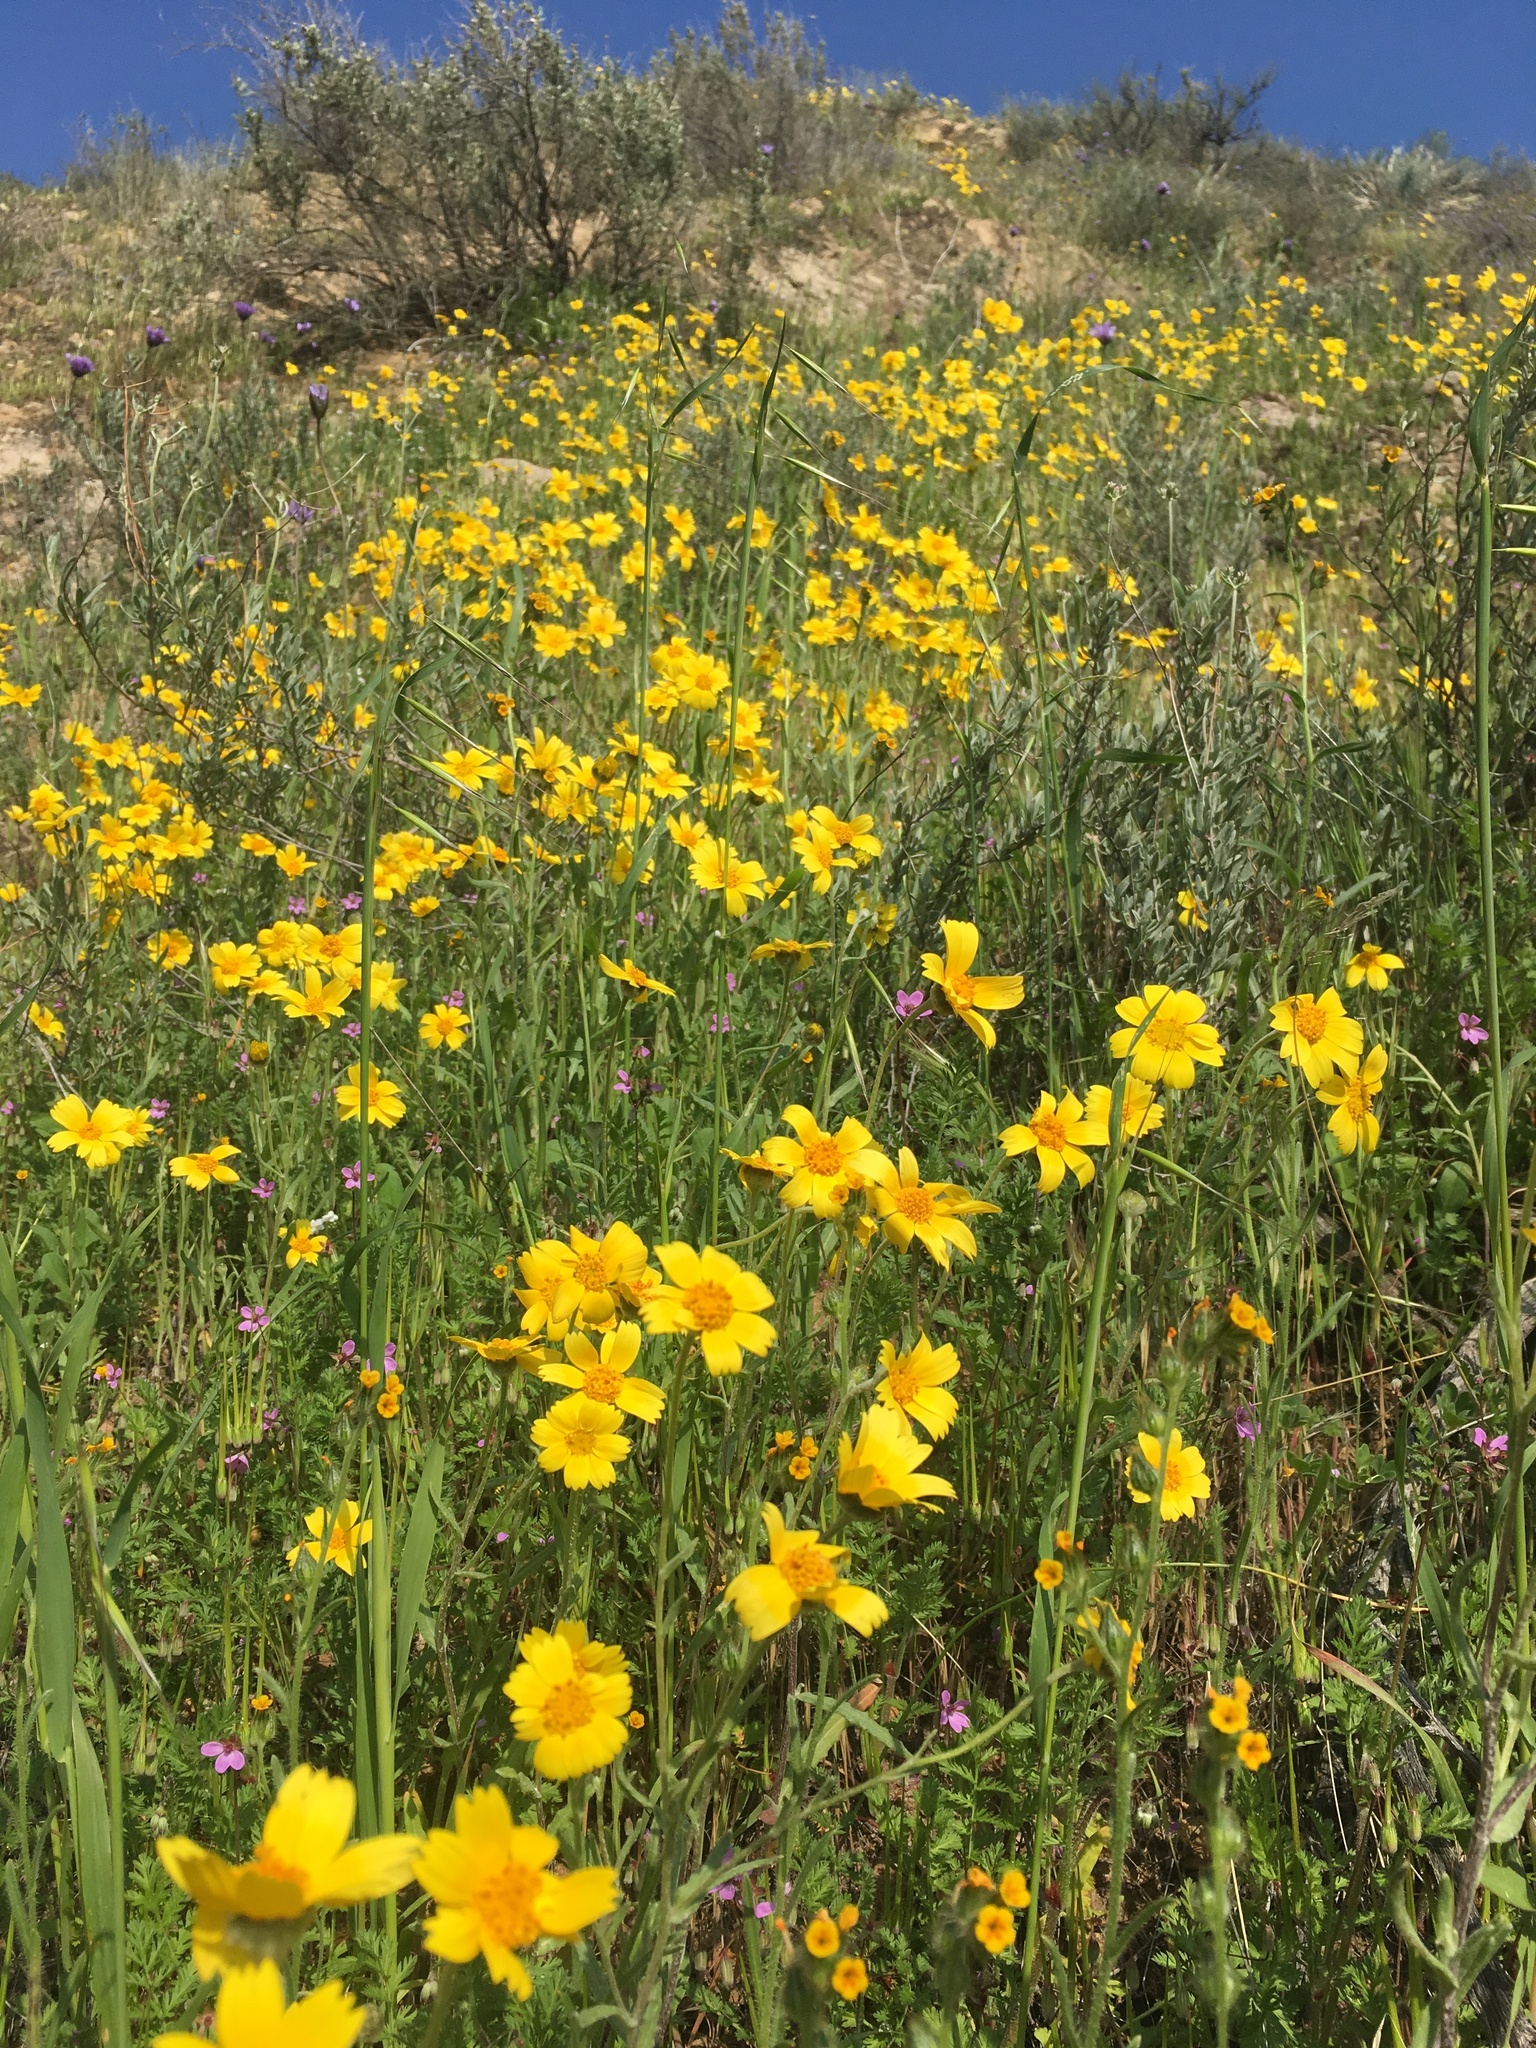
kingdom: Plantae
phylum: Tracheophyta
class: Magnoliopsida
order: Asterales
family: Asteraceae
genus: Monolopia
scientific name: Monolopia lanceolata
